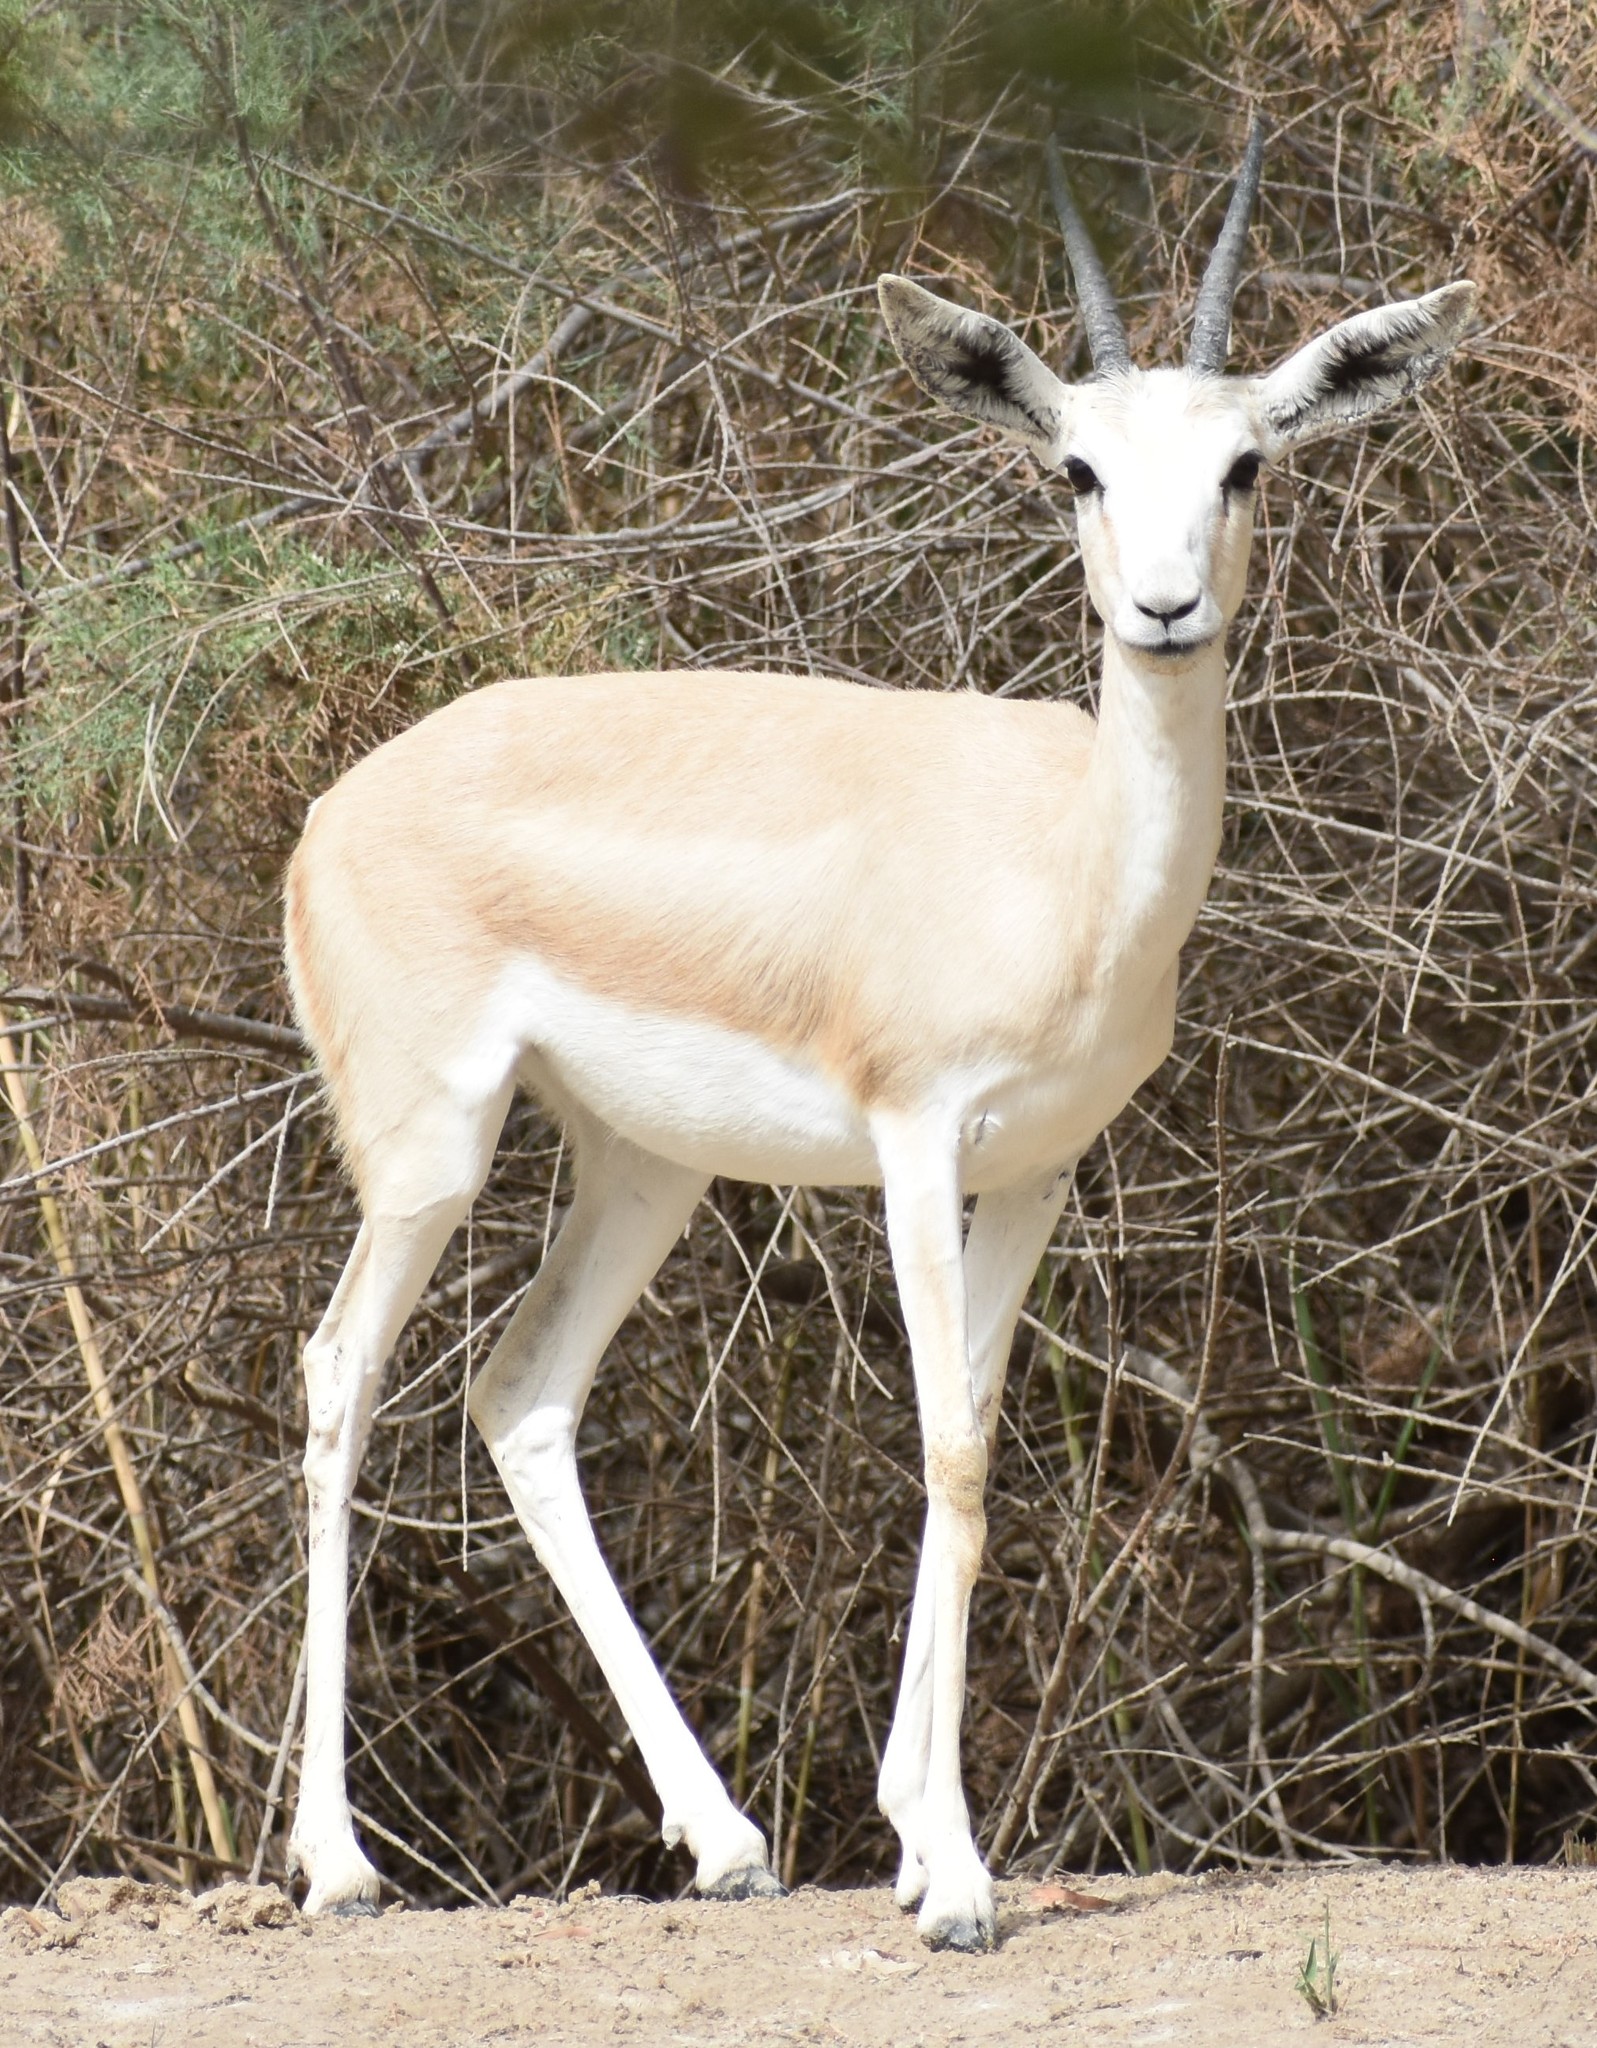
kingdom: Animalia
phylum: Chordata
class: Mammalia
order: Artiodactyla
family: Bovidae
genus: Gazella
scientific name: Gazella marica
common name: Arabian sand gazelle
